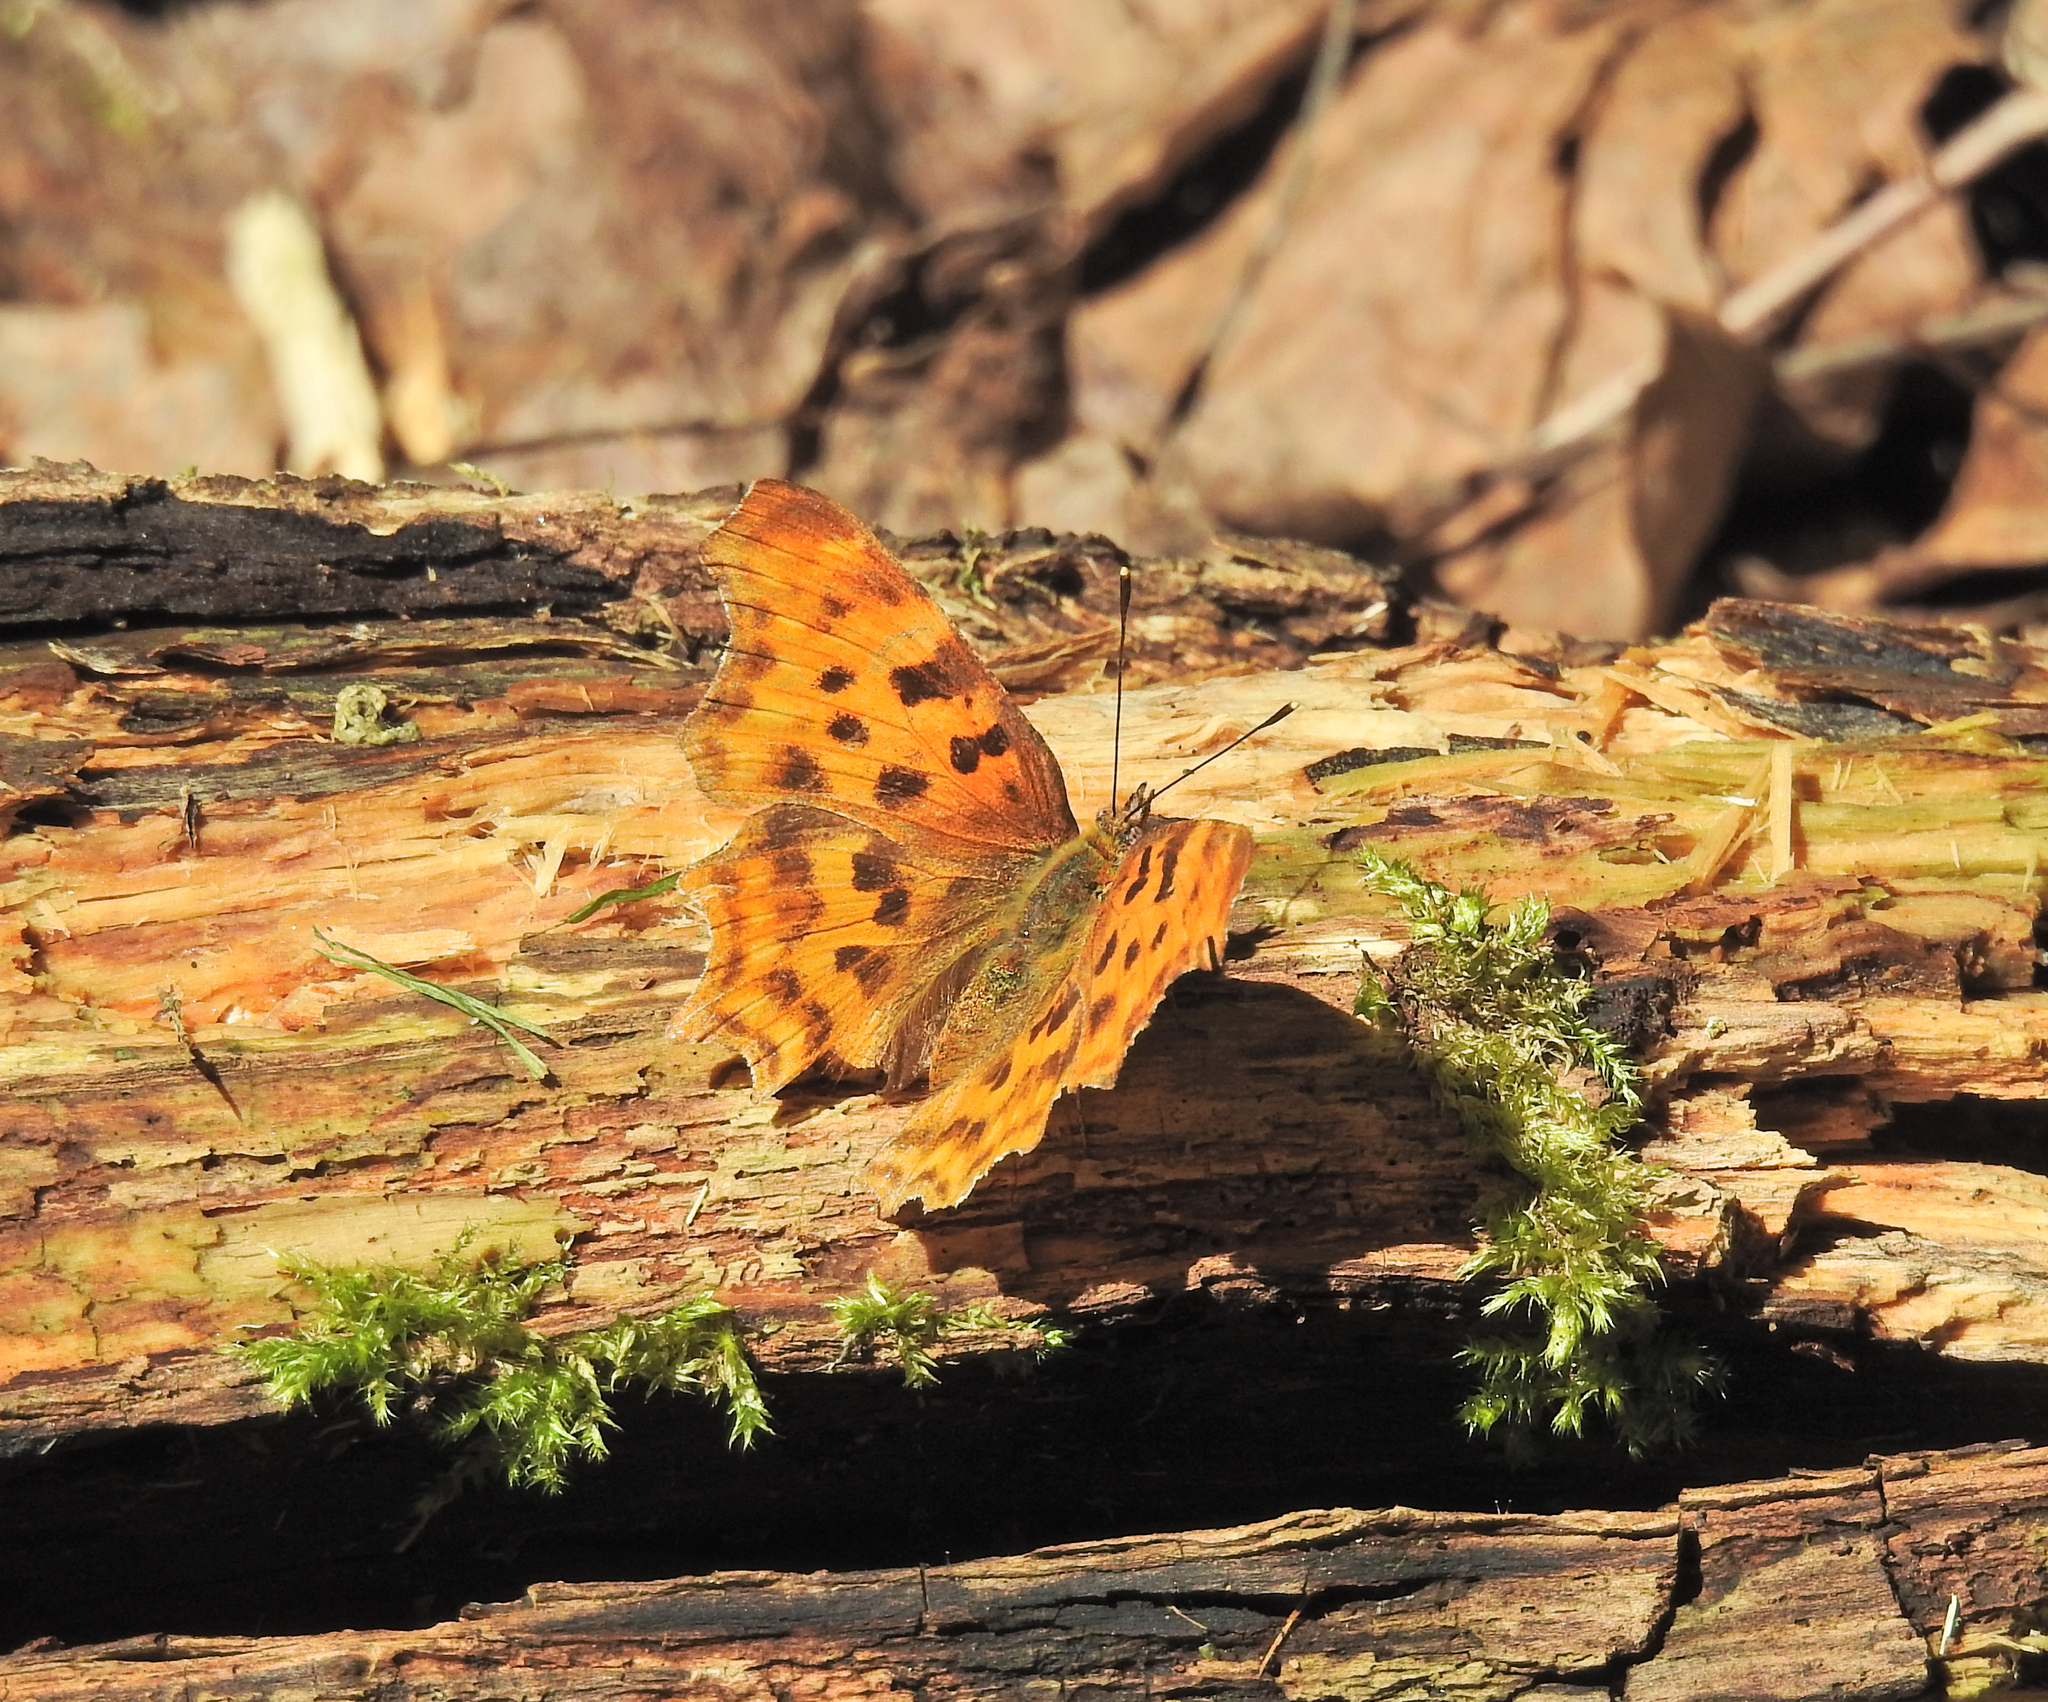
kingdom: Animalia
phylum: Arthropoda
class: Insecta
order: Lepidoptera
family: Nymphalidae
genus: Polygonia
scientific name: Polygonia c-album
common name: Comma
